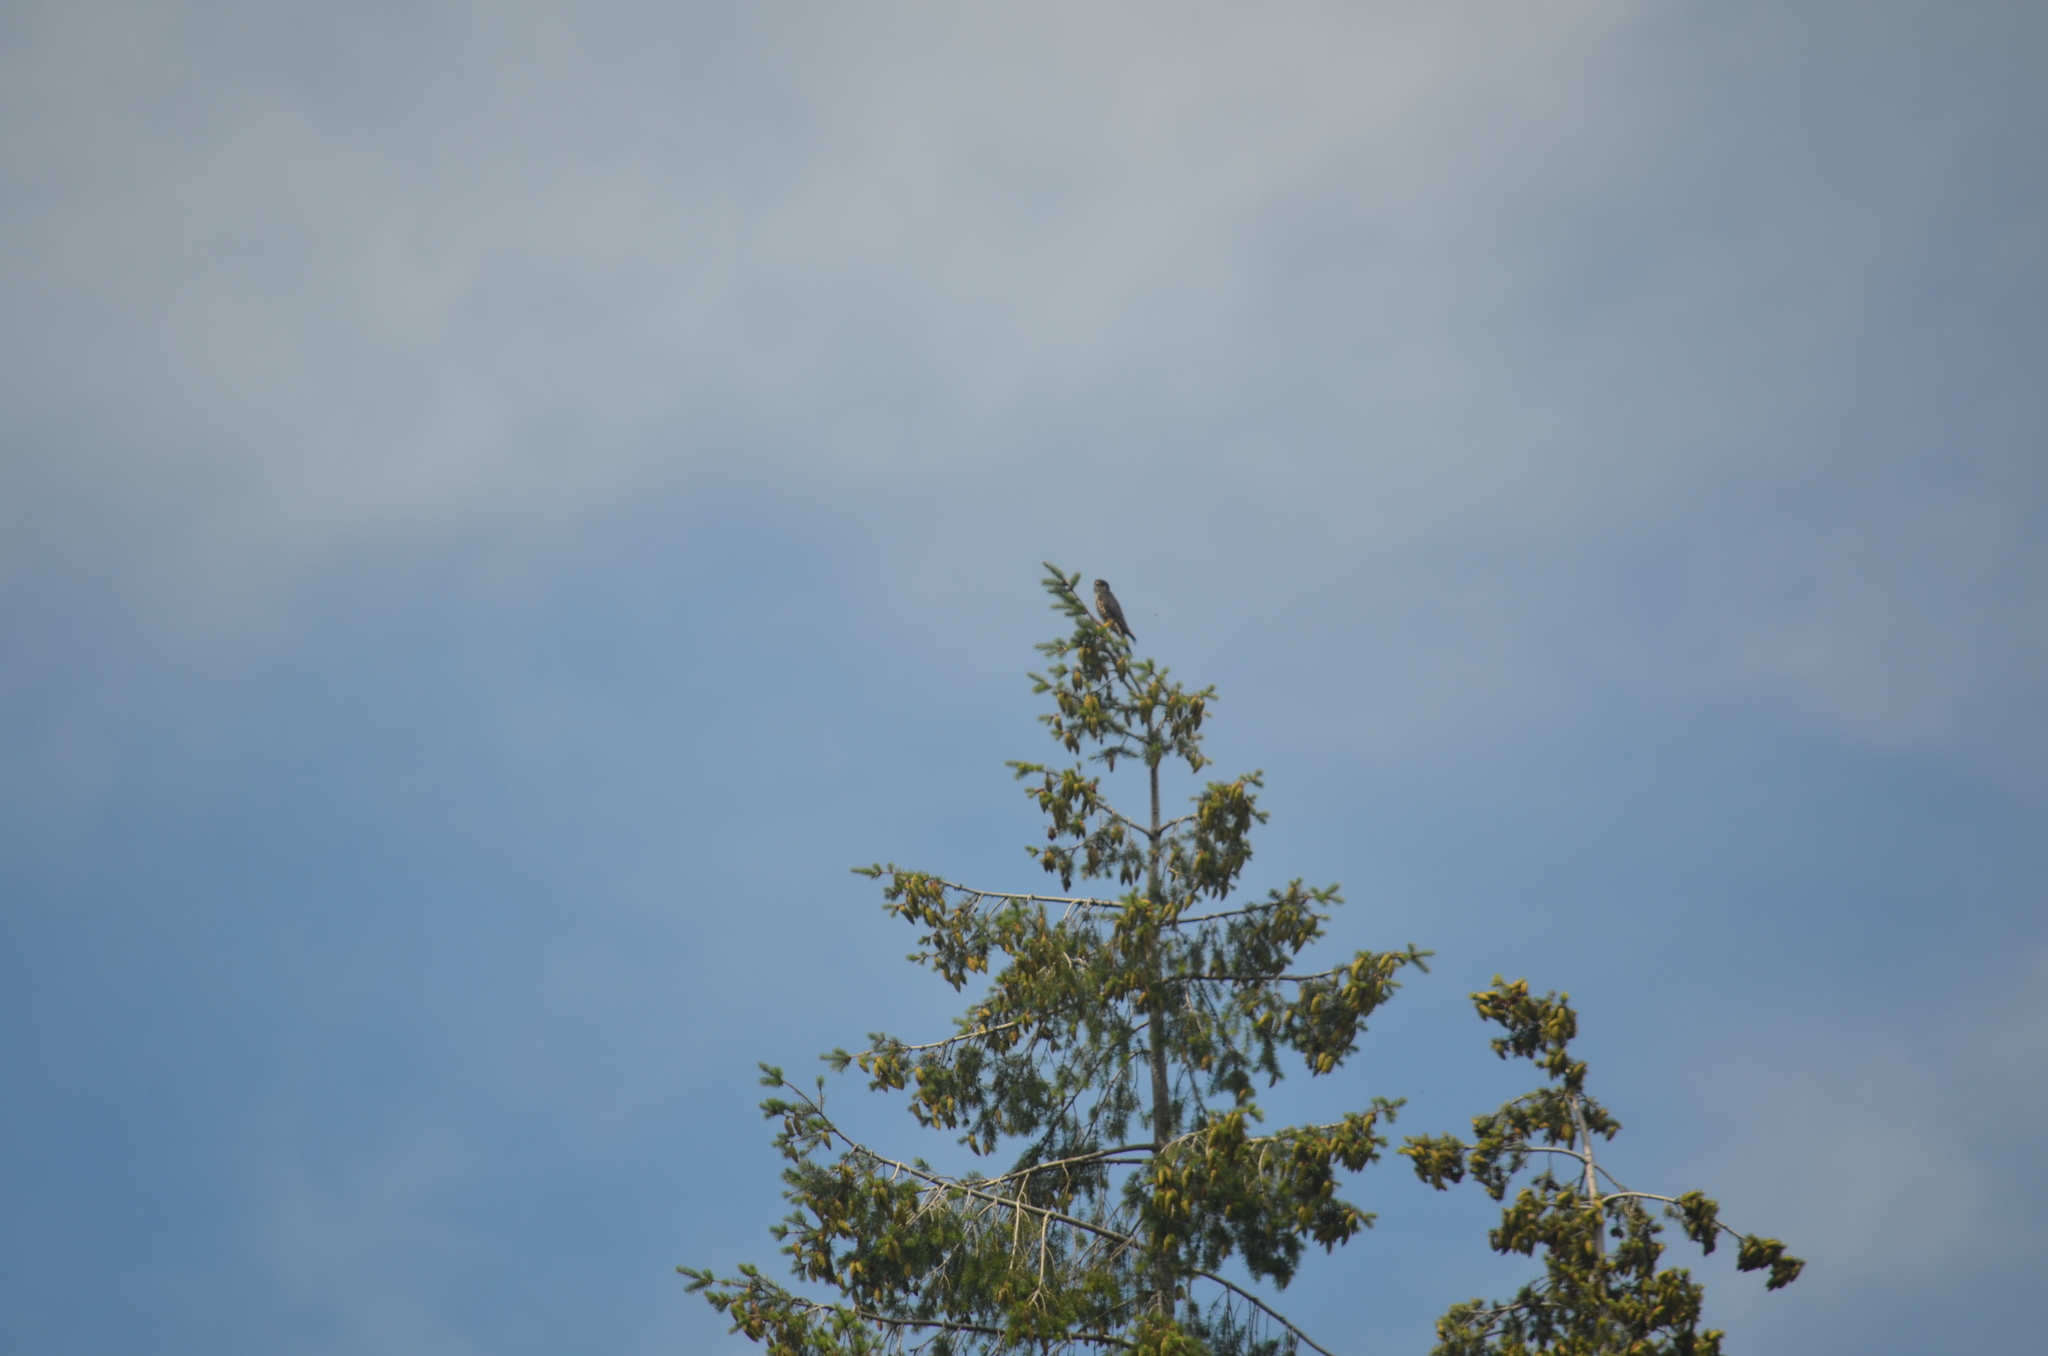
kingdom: Animalia
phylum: Chordata
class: Aves
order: Falconiformes
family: Falconidae
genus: Falco
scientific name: Falco columbarius
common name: Merlin
